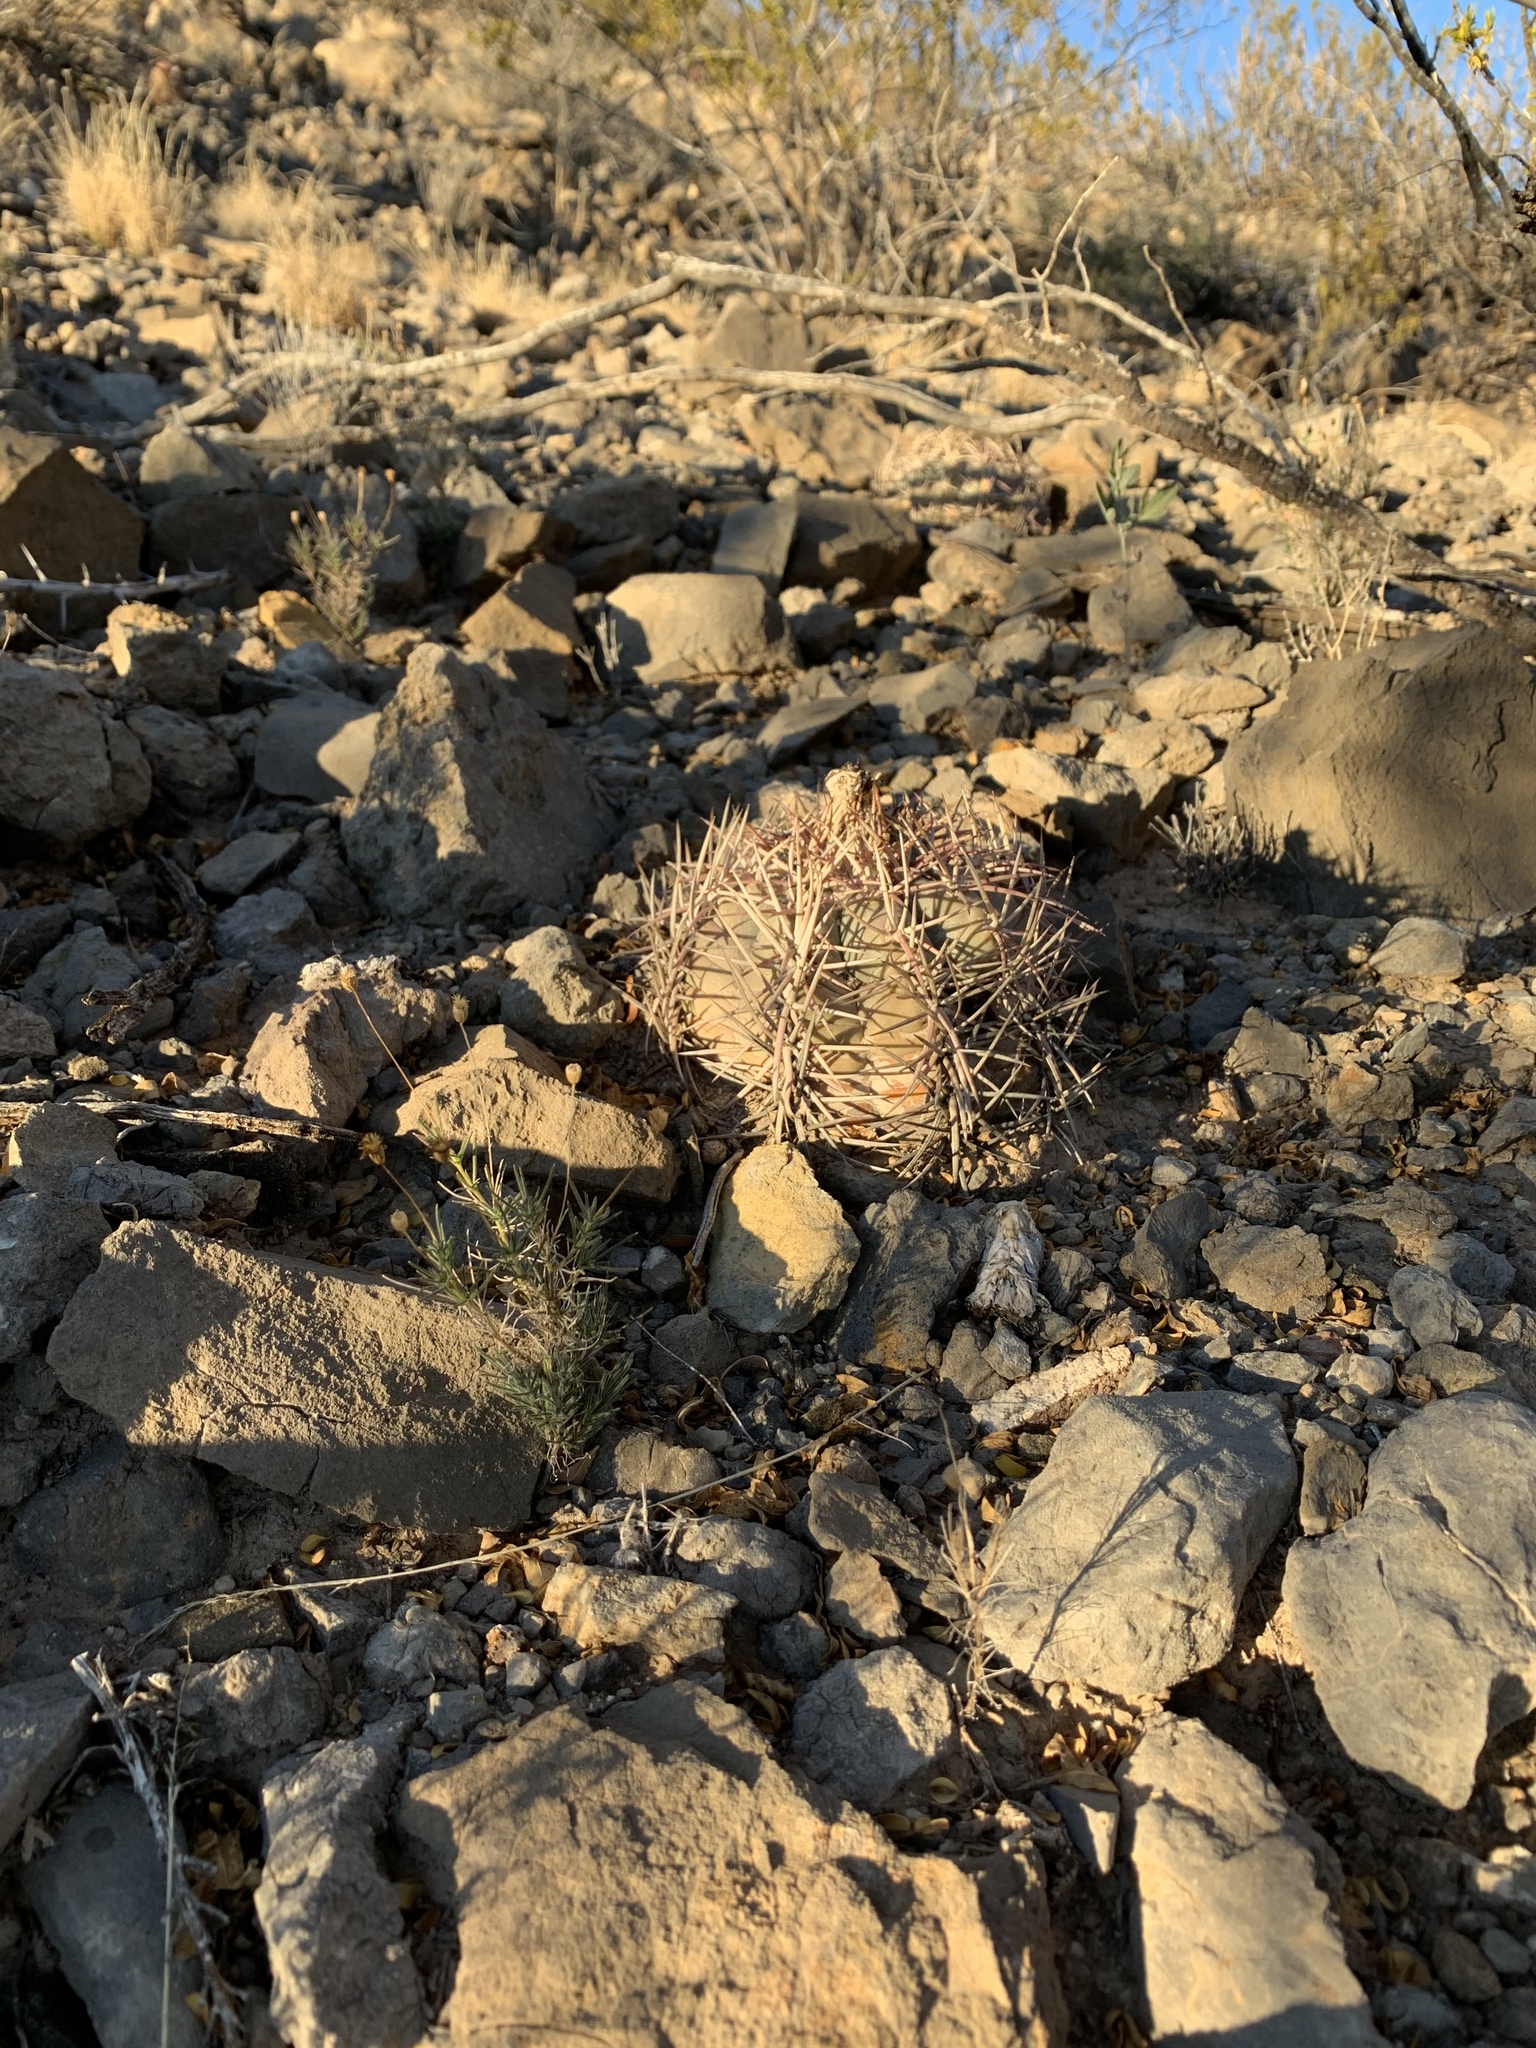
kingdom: Plantae
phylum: Tracheophyta
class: Magnoliopsida
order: Caryophyllales
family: Cactaceae
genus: Echinocactus
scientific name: Echinocactus horizonthalonius
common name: Devilshead
